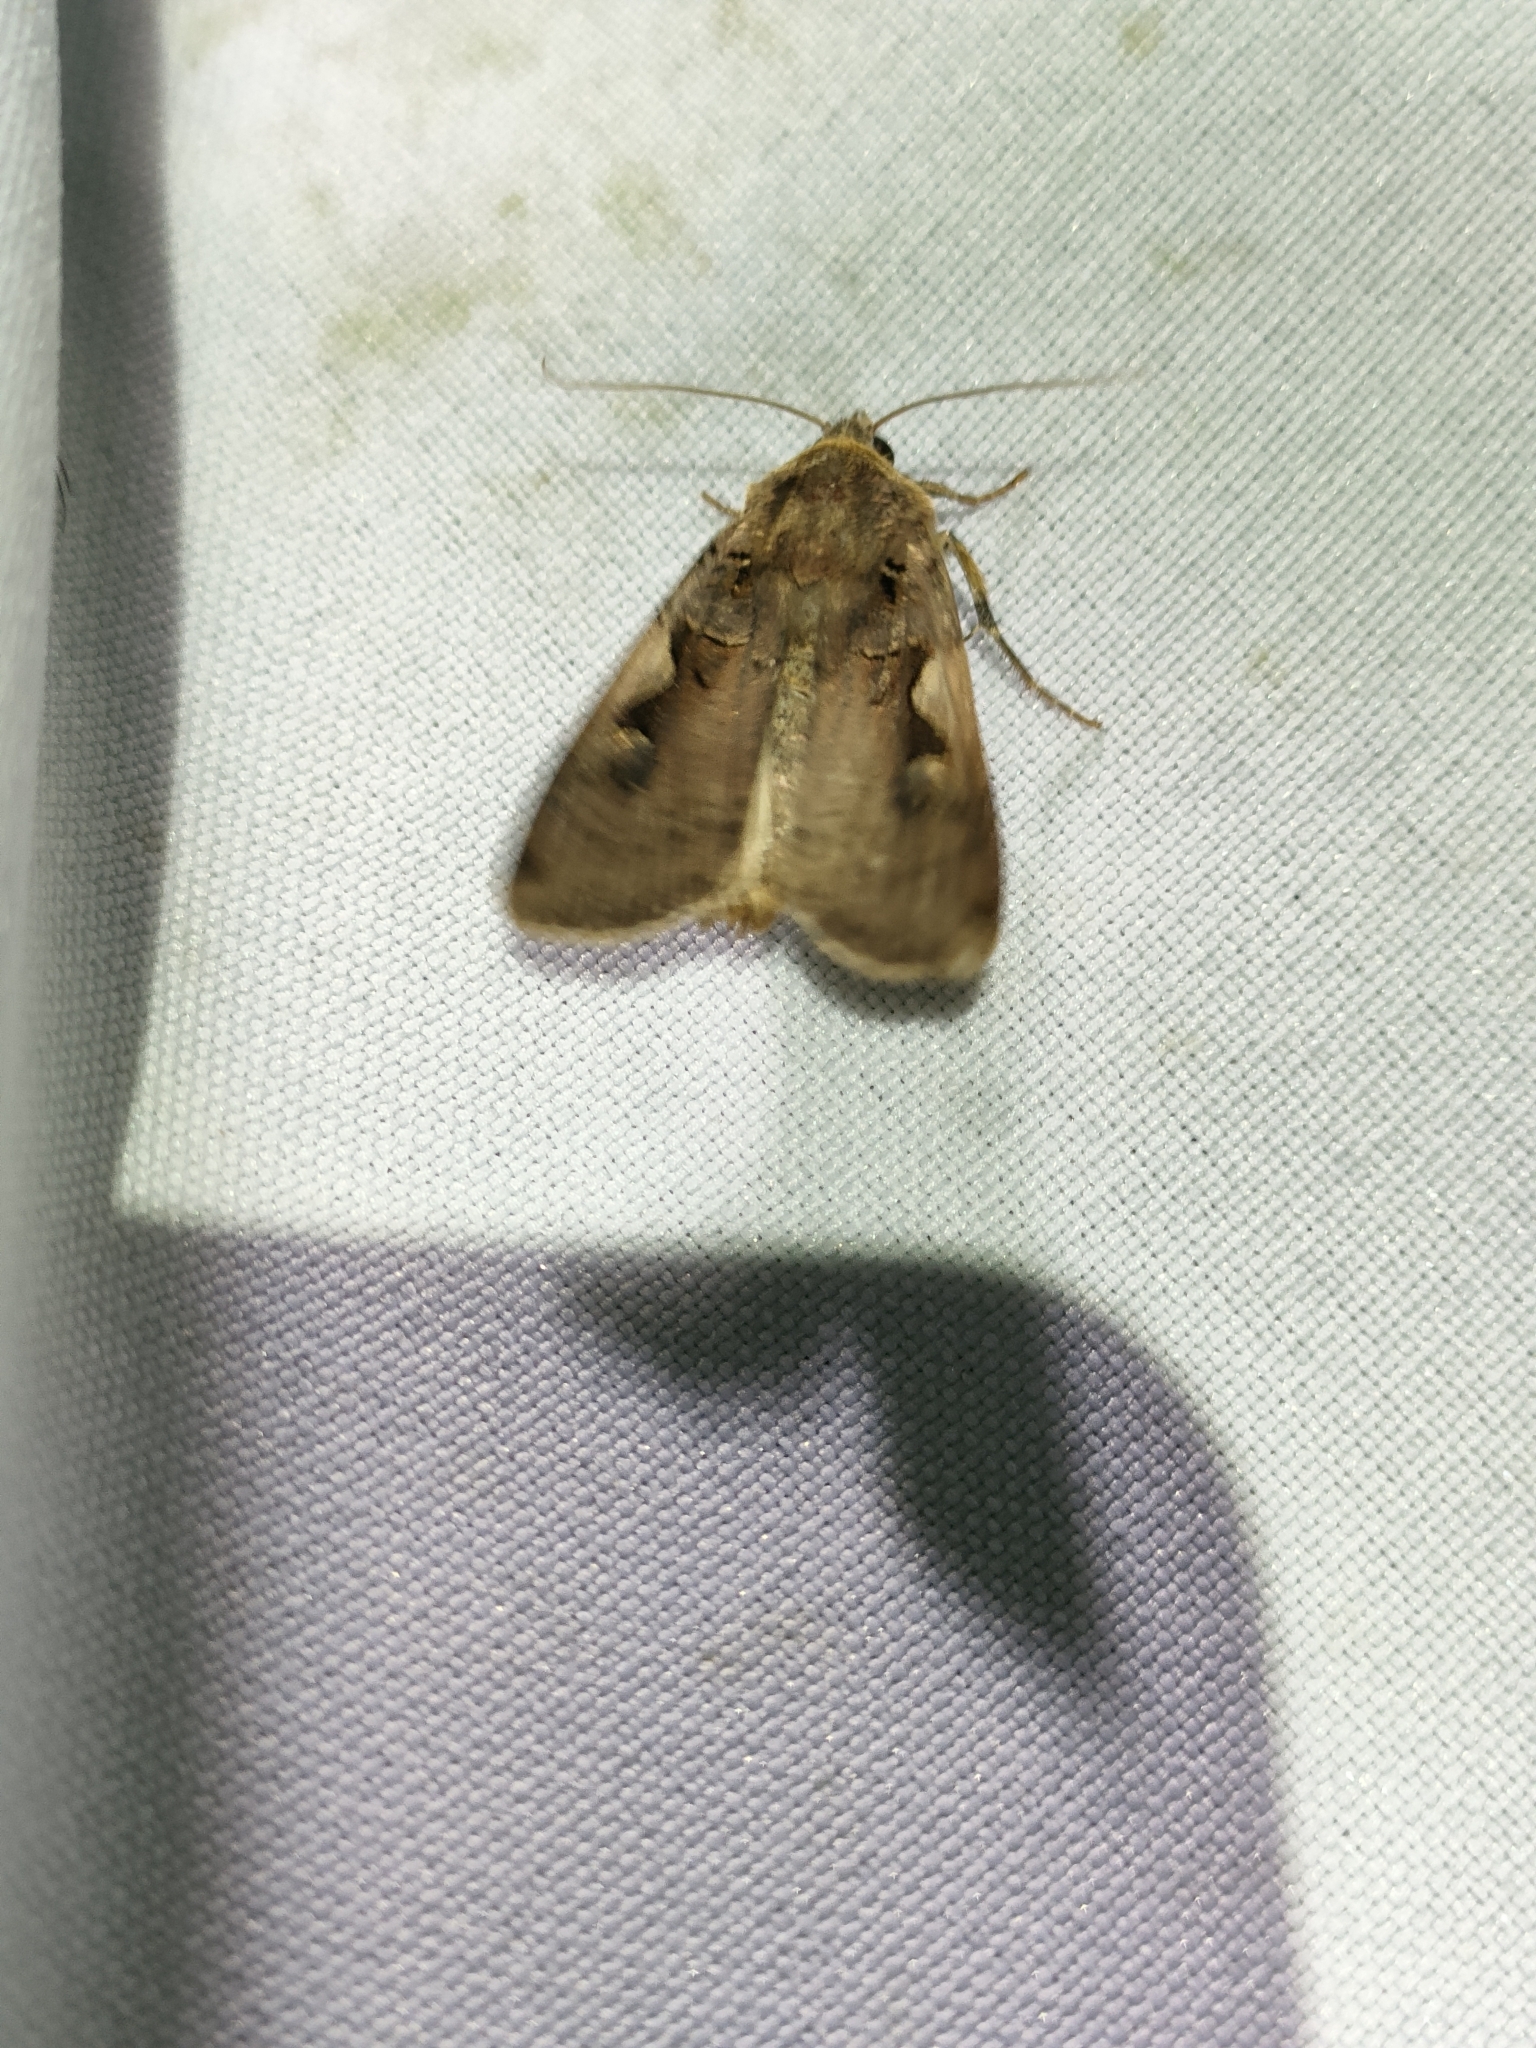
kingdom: Animalia
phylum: Arthropoda
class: Insecta
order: Lepidoptera
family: Noctuidae
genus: Xestia
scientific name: Xestia c-nigrum
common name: Setaceous hebrew character
